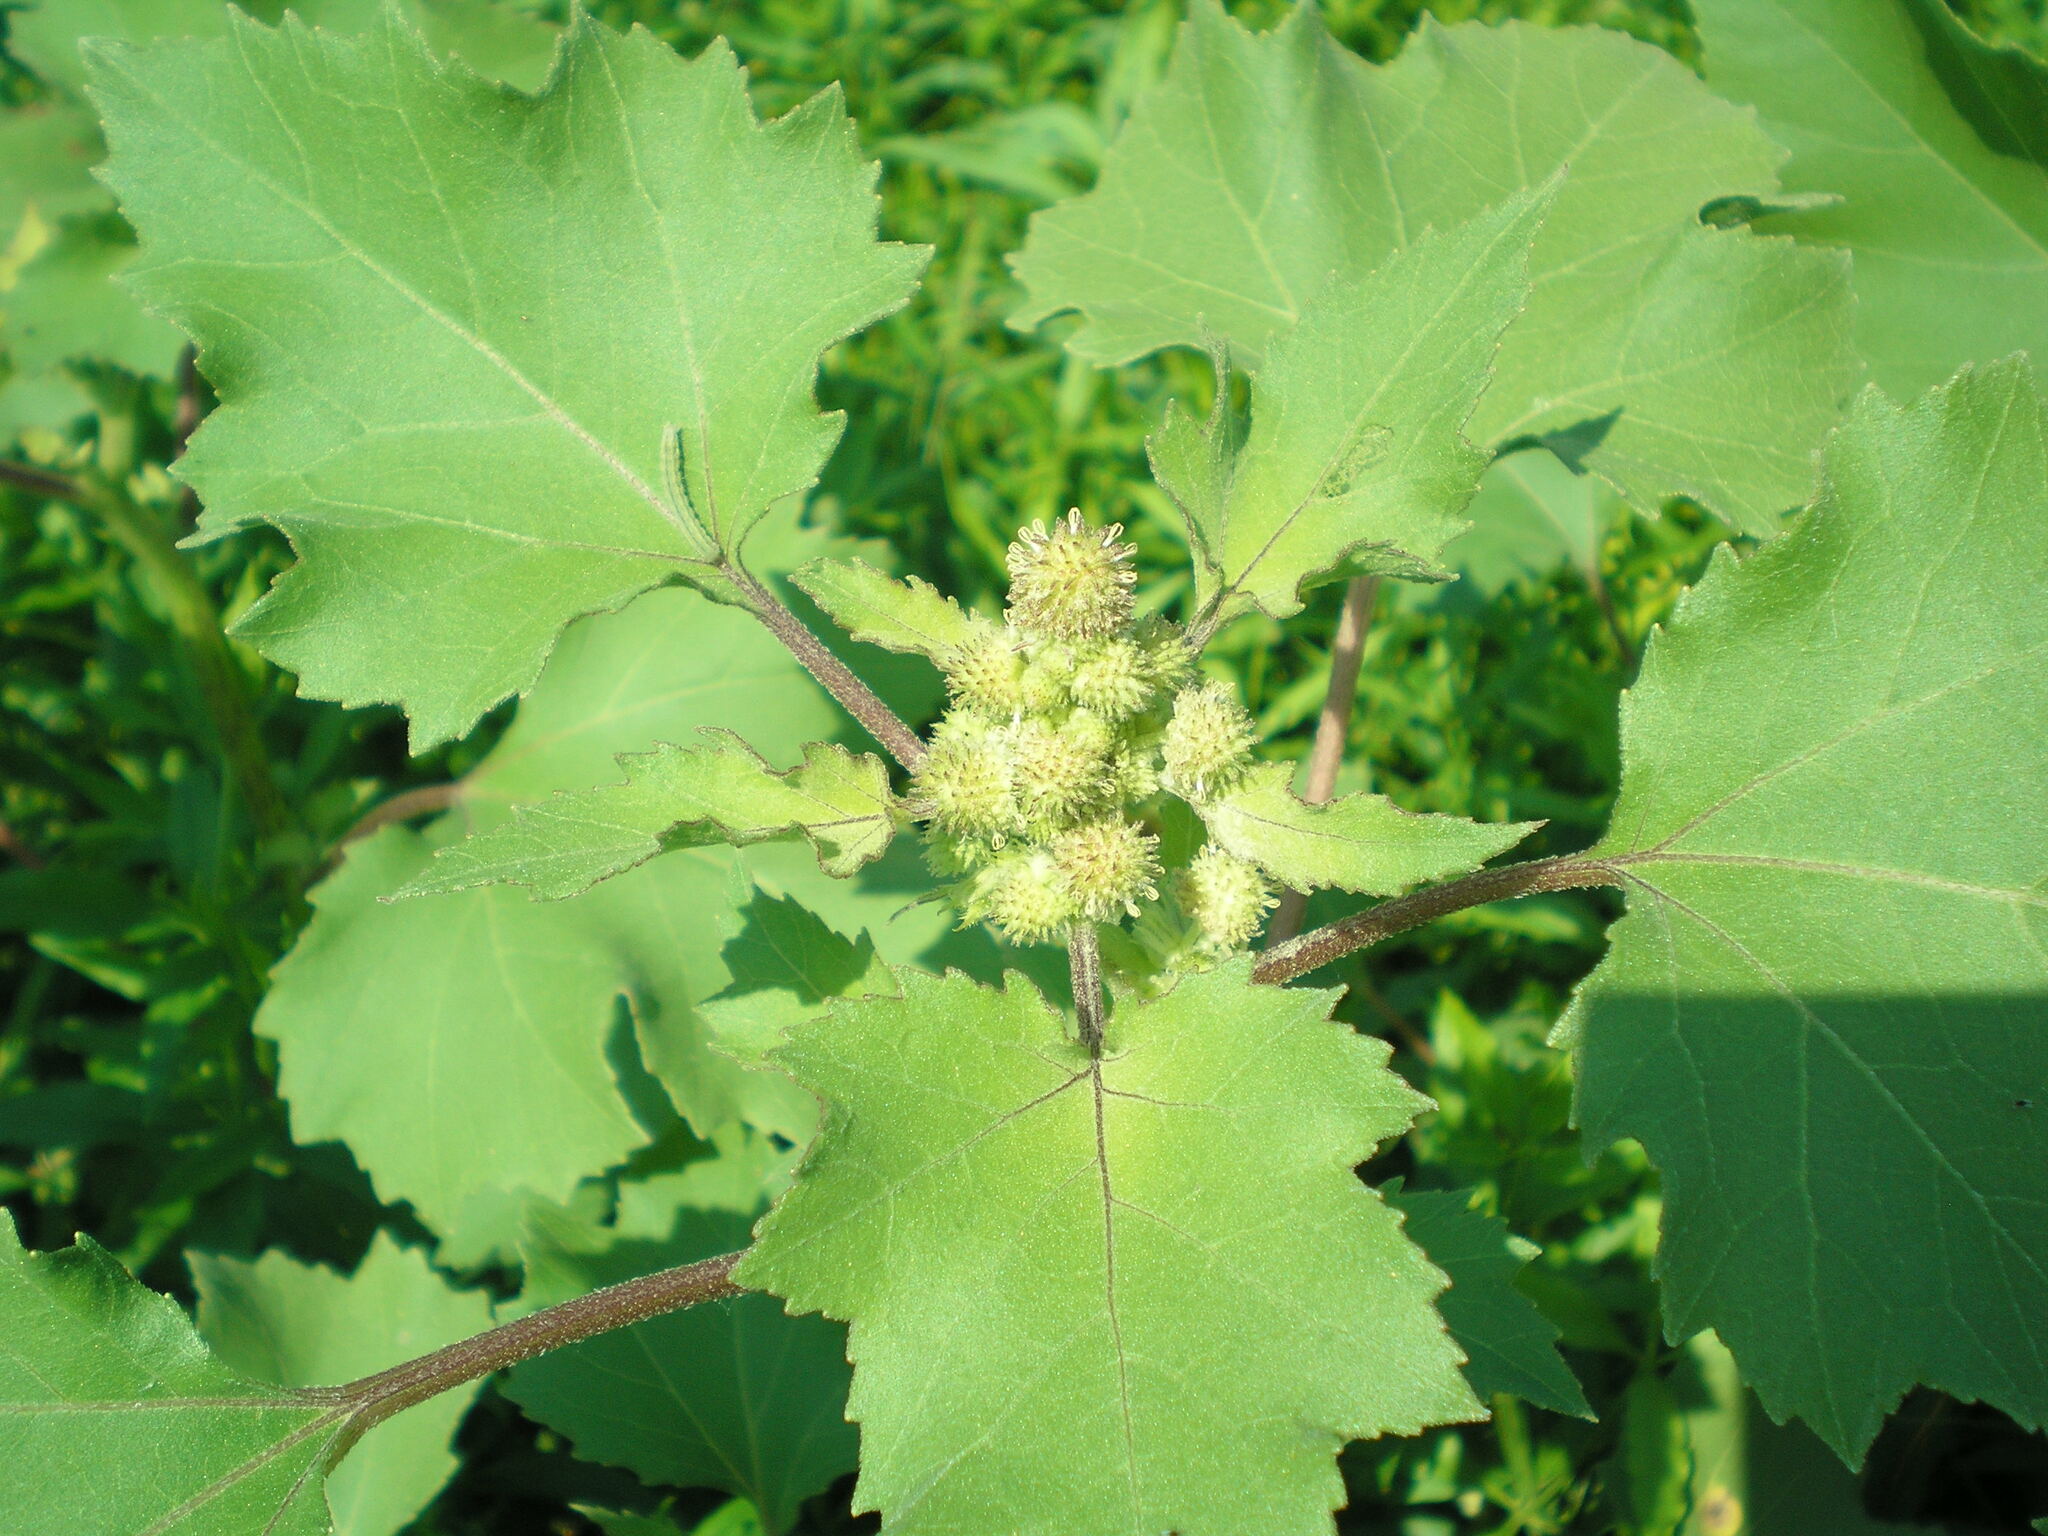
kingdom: Plantae
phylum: Tracheophyta
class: Magnoliopsida
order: Asterales
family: Asteraceae
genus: Xanthium
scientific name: Xanthium orientale
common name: Californian burr
